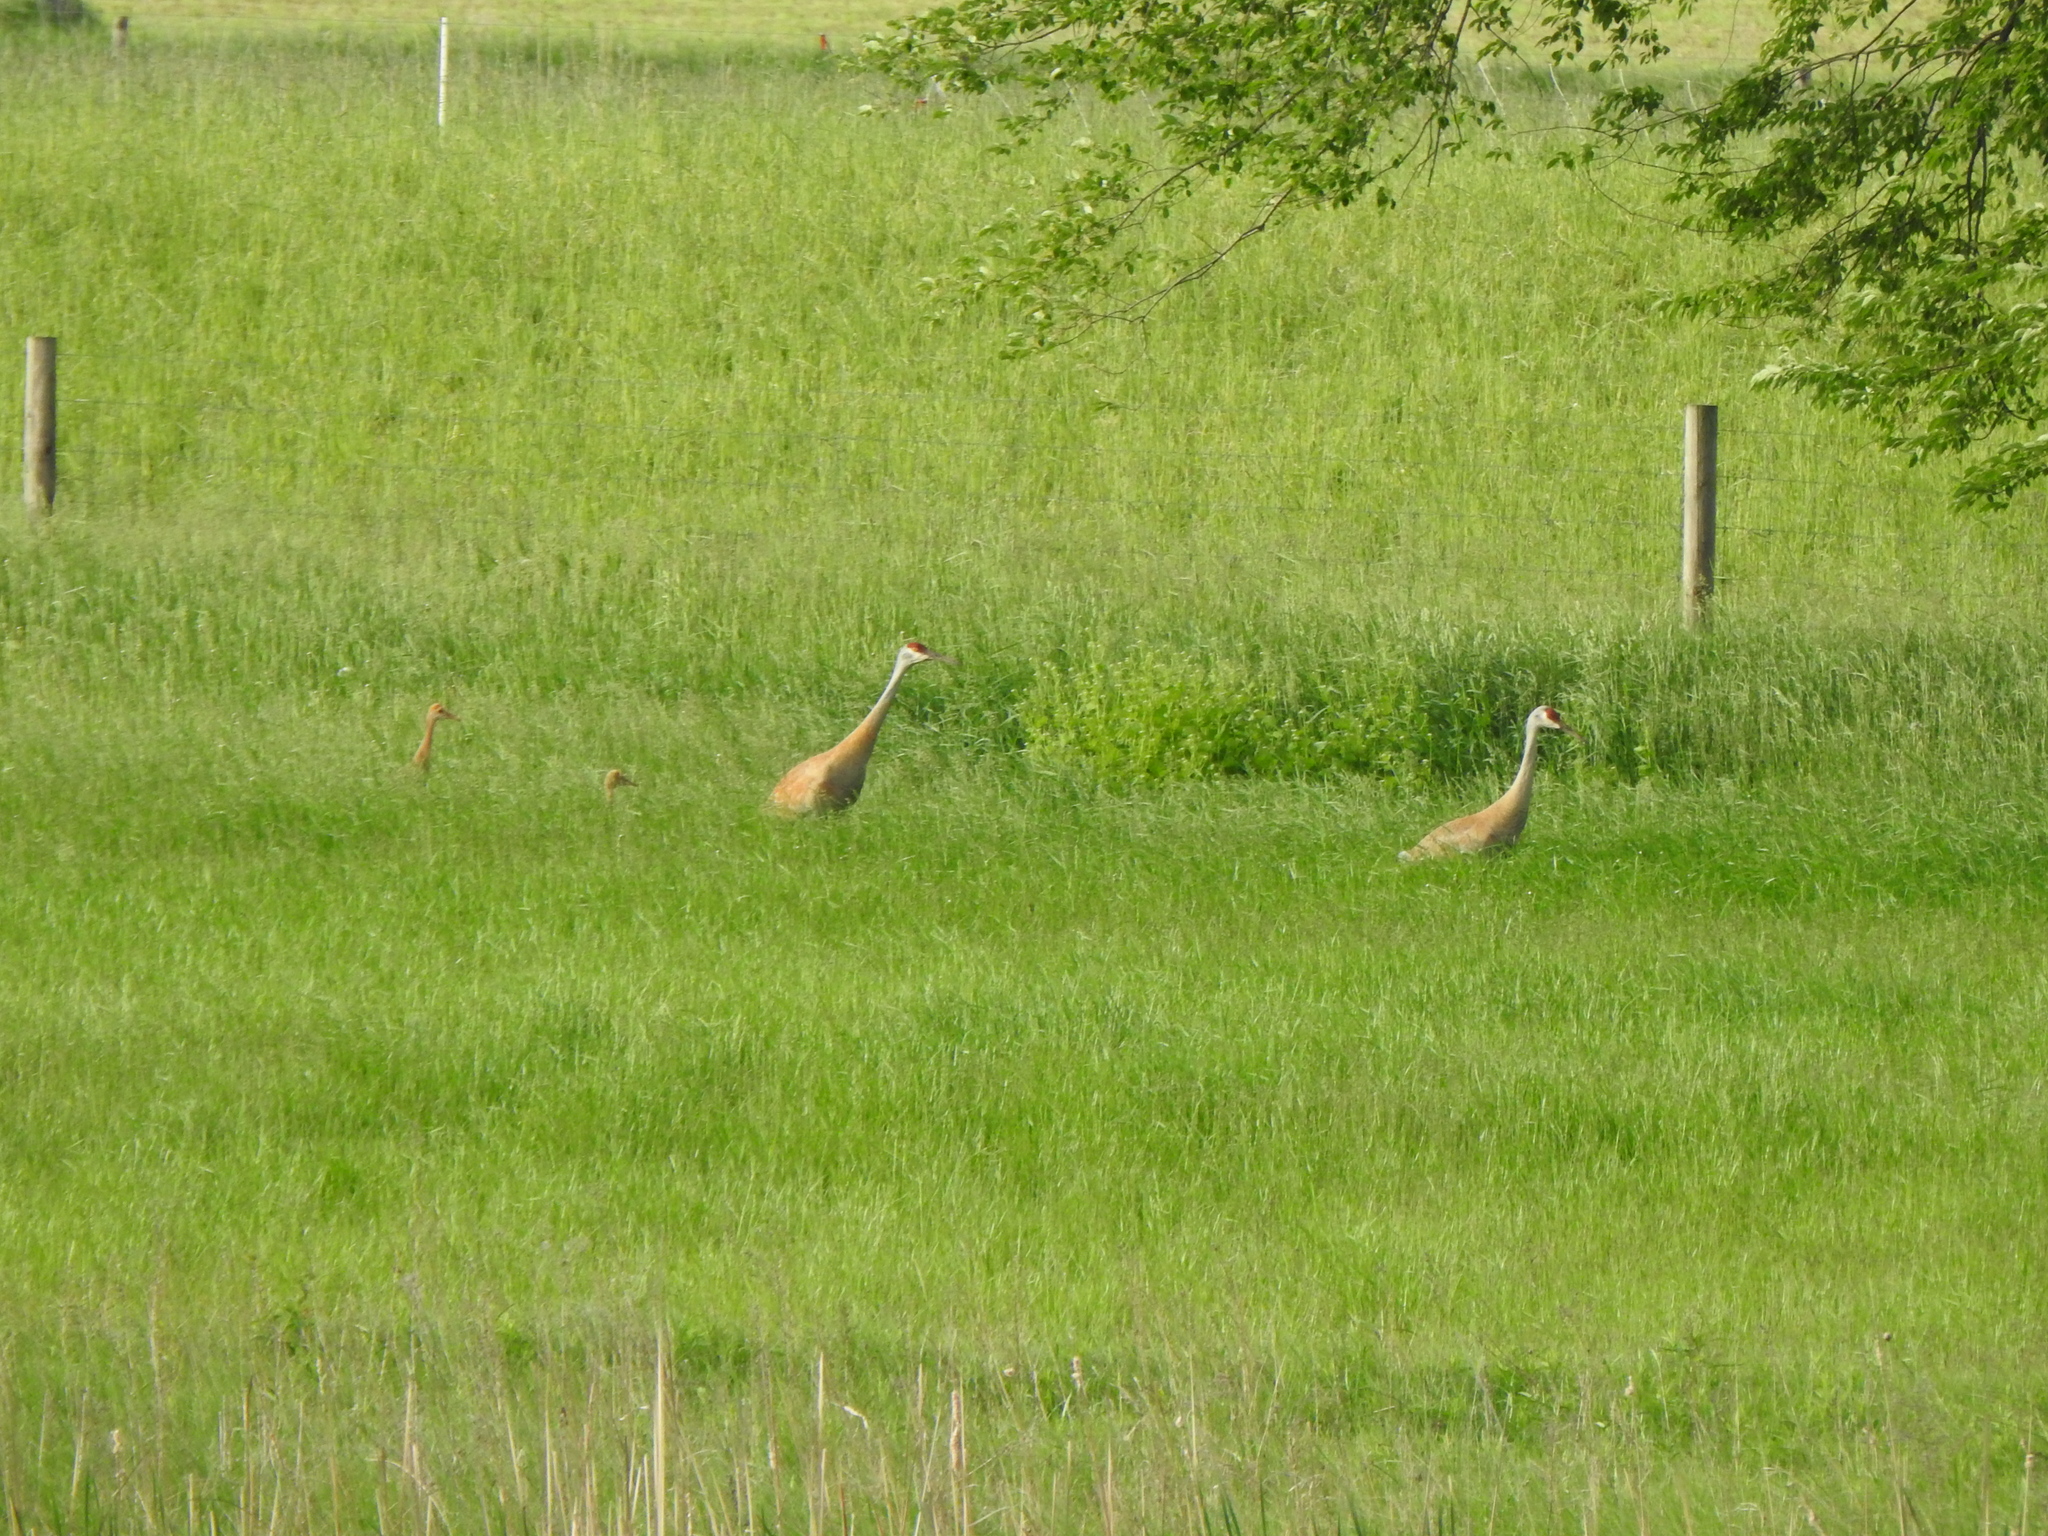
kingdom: Animalia
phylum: Chordata
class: Aves
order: Gruiformes
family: Gruidae
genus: Grus
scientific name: Grus canadensis
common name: Sandhill crane
